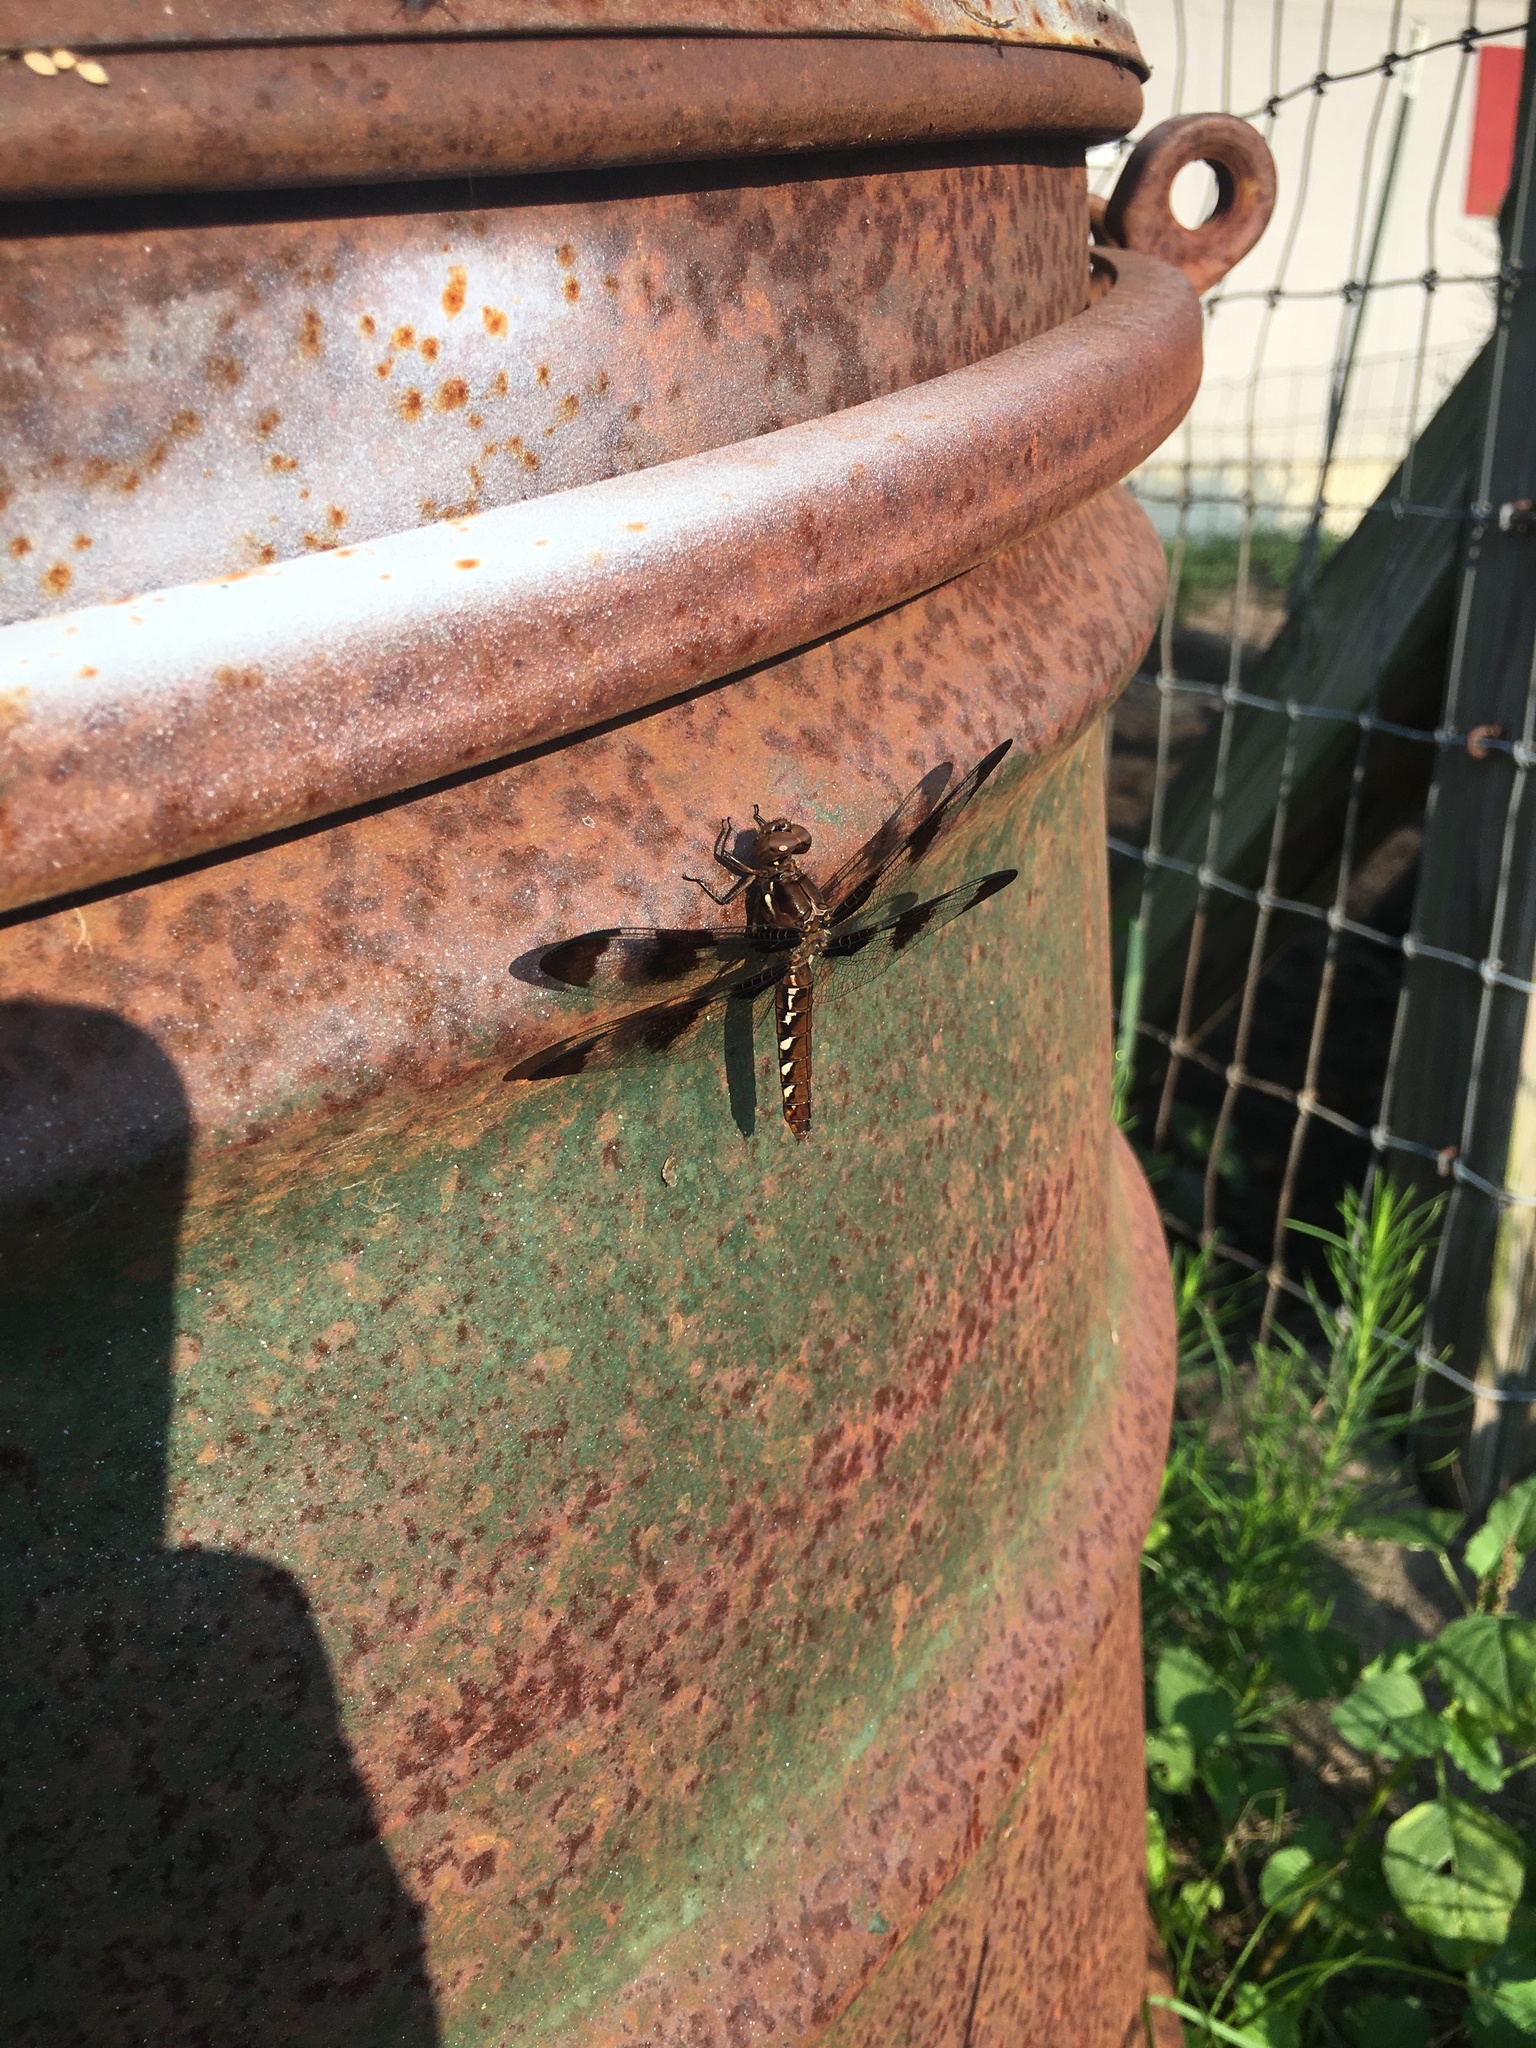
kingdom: Animalia
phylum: Arthropoda
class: Insecta
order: Odonata
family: Libellulidae
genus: Plathemis
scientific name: Plathemis lydia
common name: Common whitetail
